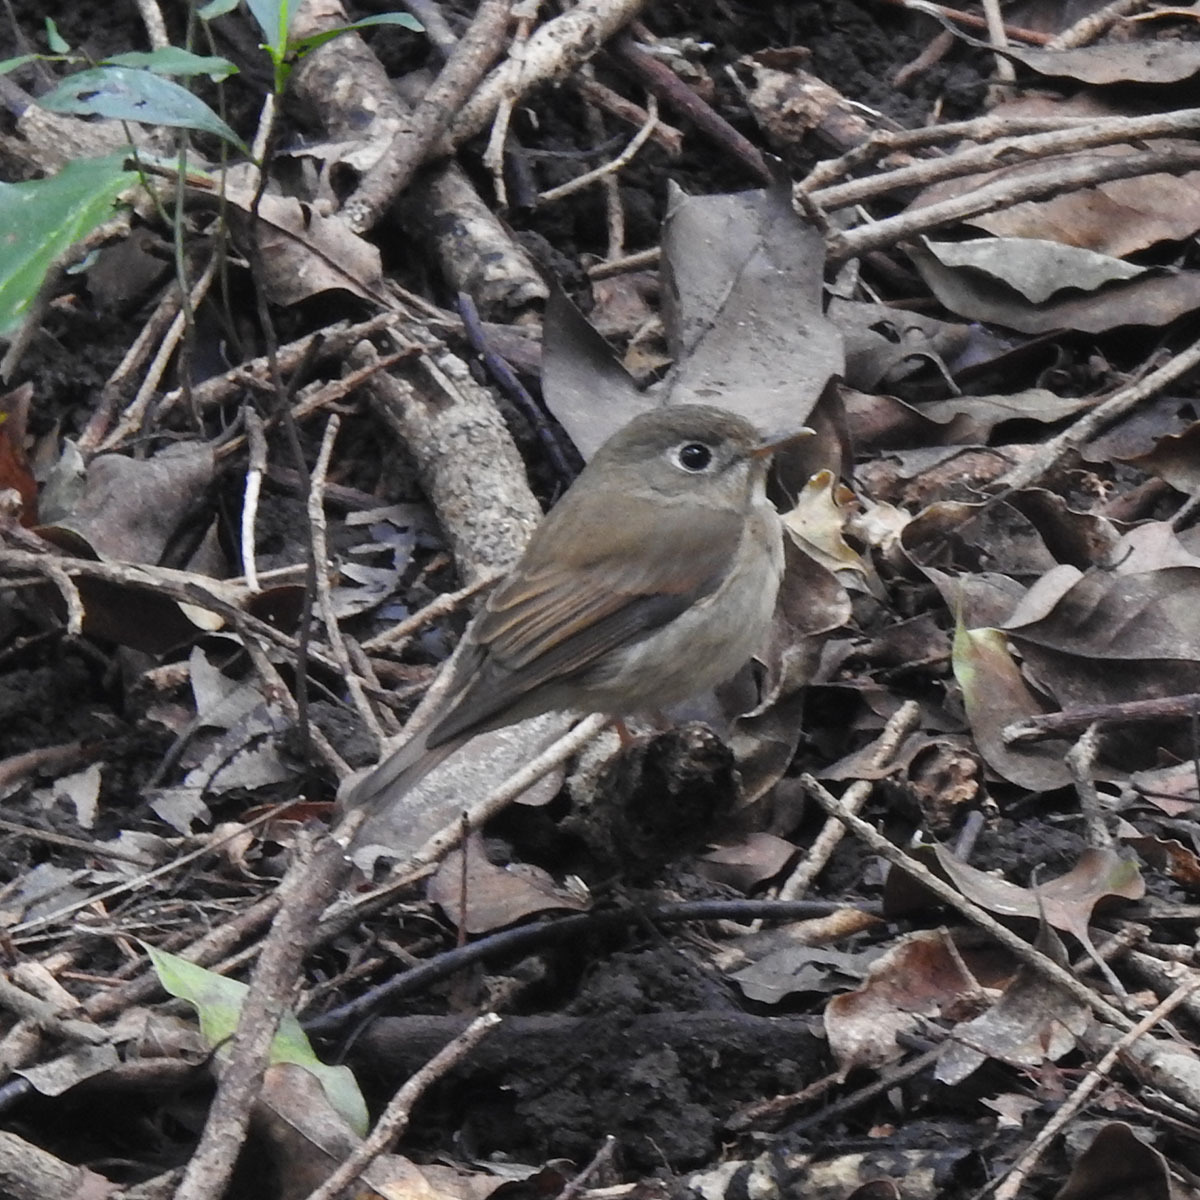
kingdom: Animalia
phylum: Chordata
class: Aves
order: Passeriformes
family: Muscicapidae
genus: Muscicapa
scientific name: Muscicapa muttui
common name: Brown-breasted flycatcher
